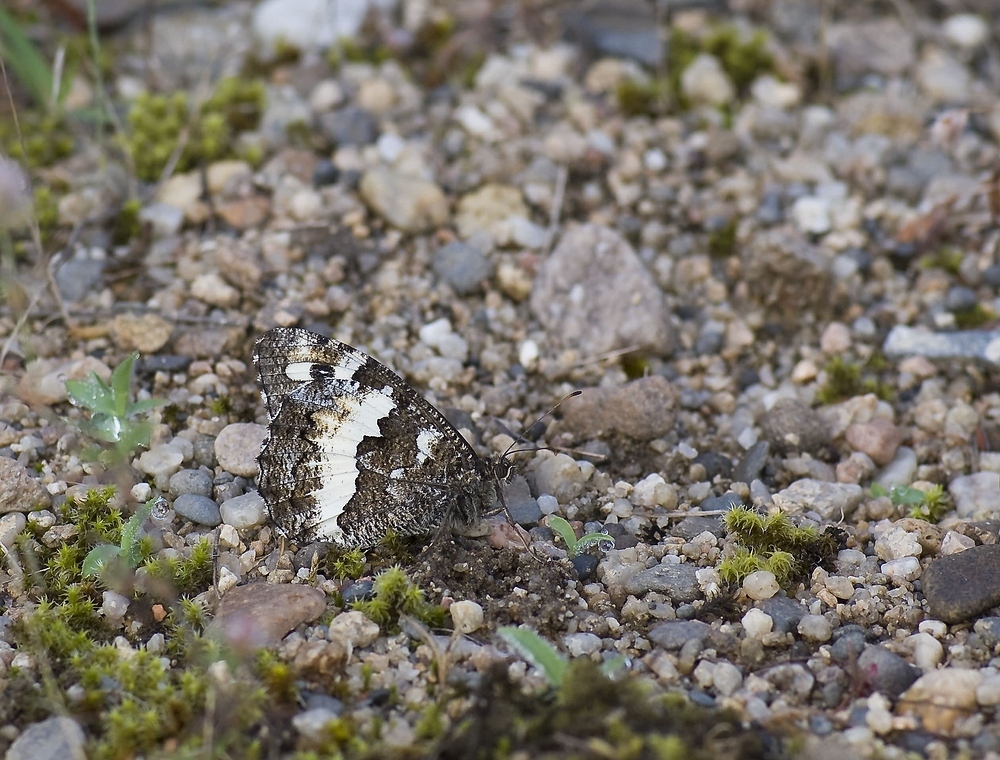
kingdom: Animalia
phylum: Arthropoda
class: Insecta
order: Lepidoptera
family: Lycaenidae
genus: Loweia
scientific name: Loweia tityrus
